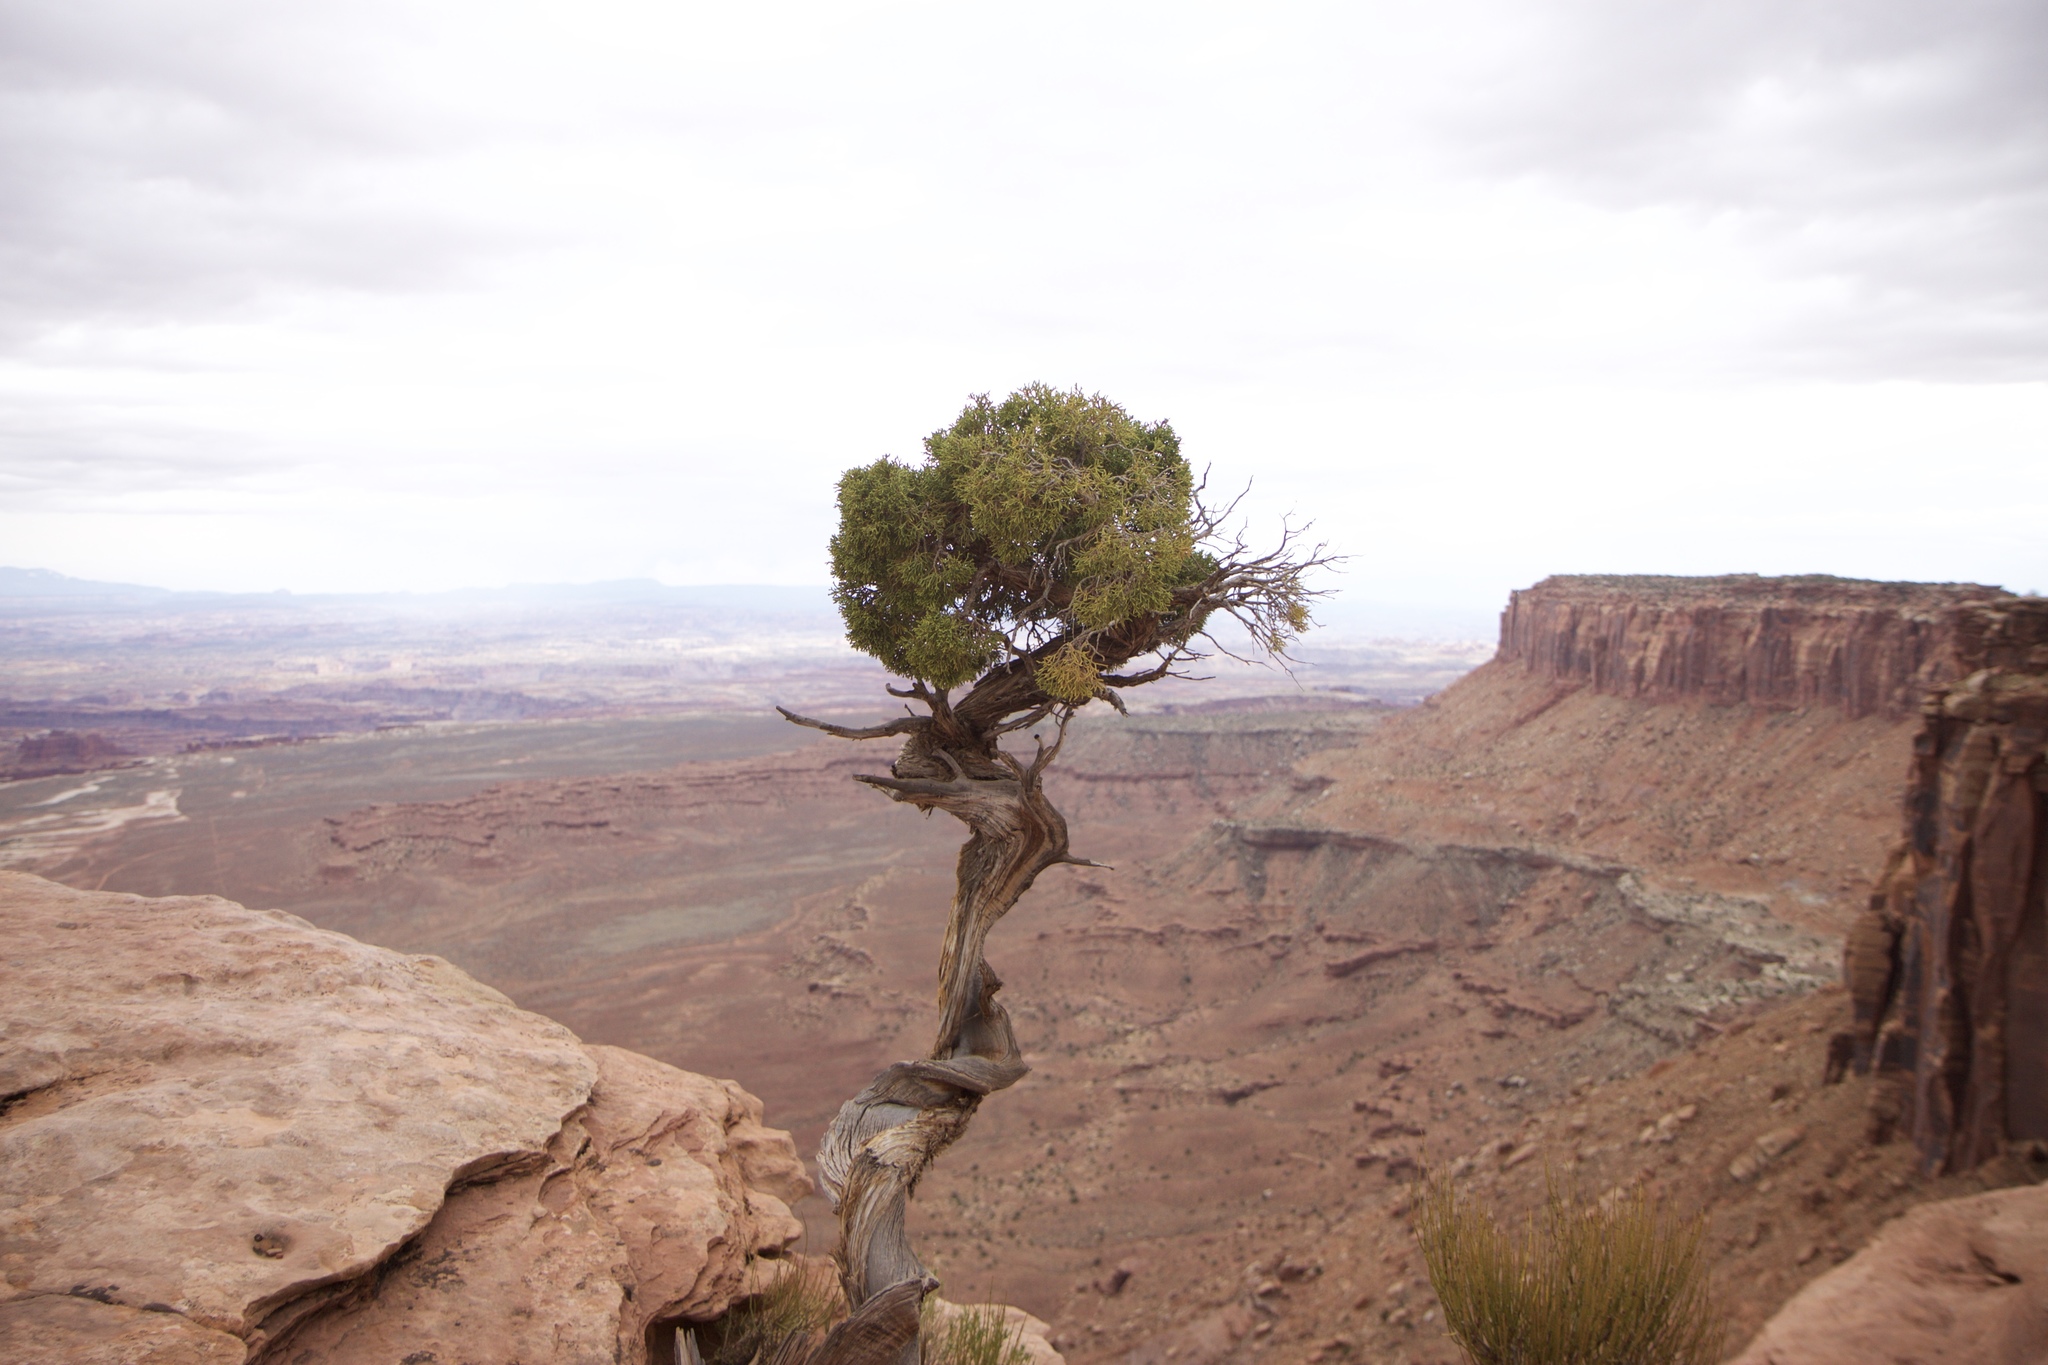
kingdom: Plantae
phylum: Tracheophyta
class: Pinopsida
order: Pinales
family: Cupressaceae
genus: Juniperus
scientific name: Juniperus osteosperma
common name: Utah juniper
